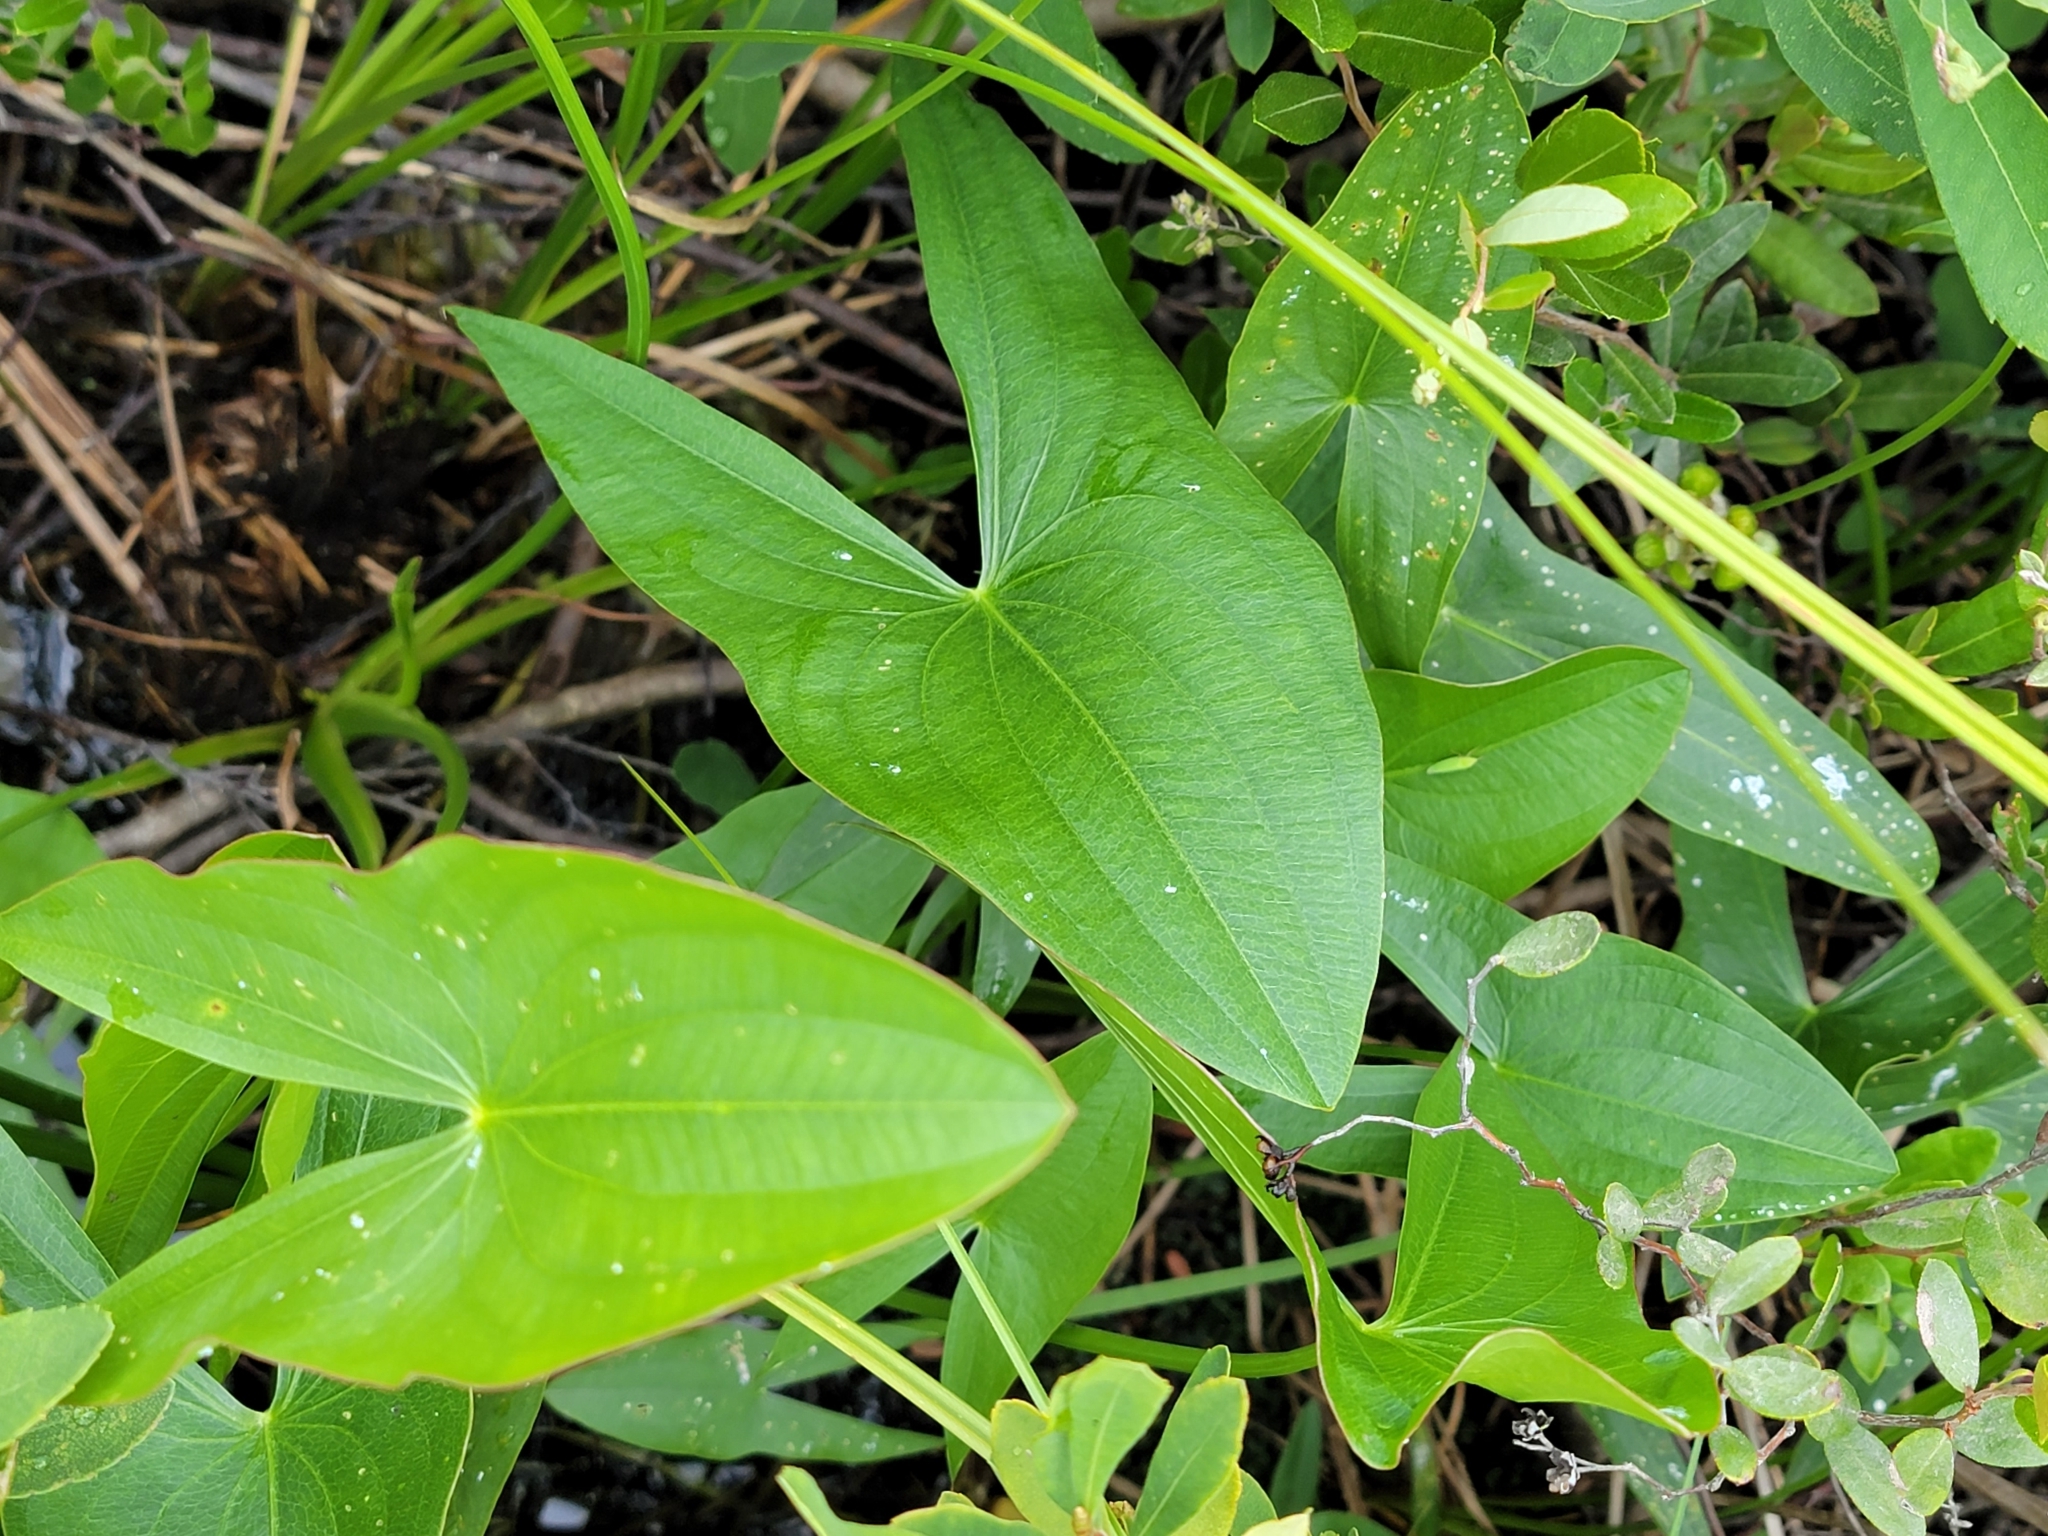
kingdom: Plantae
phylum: Tracheophyta
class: Liliopsida
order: Alismatales
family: Alismataceae
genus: Sagittaria
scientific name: Sagittaria latifolia
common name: Duck-potato
